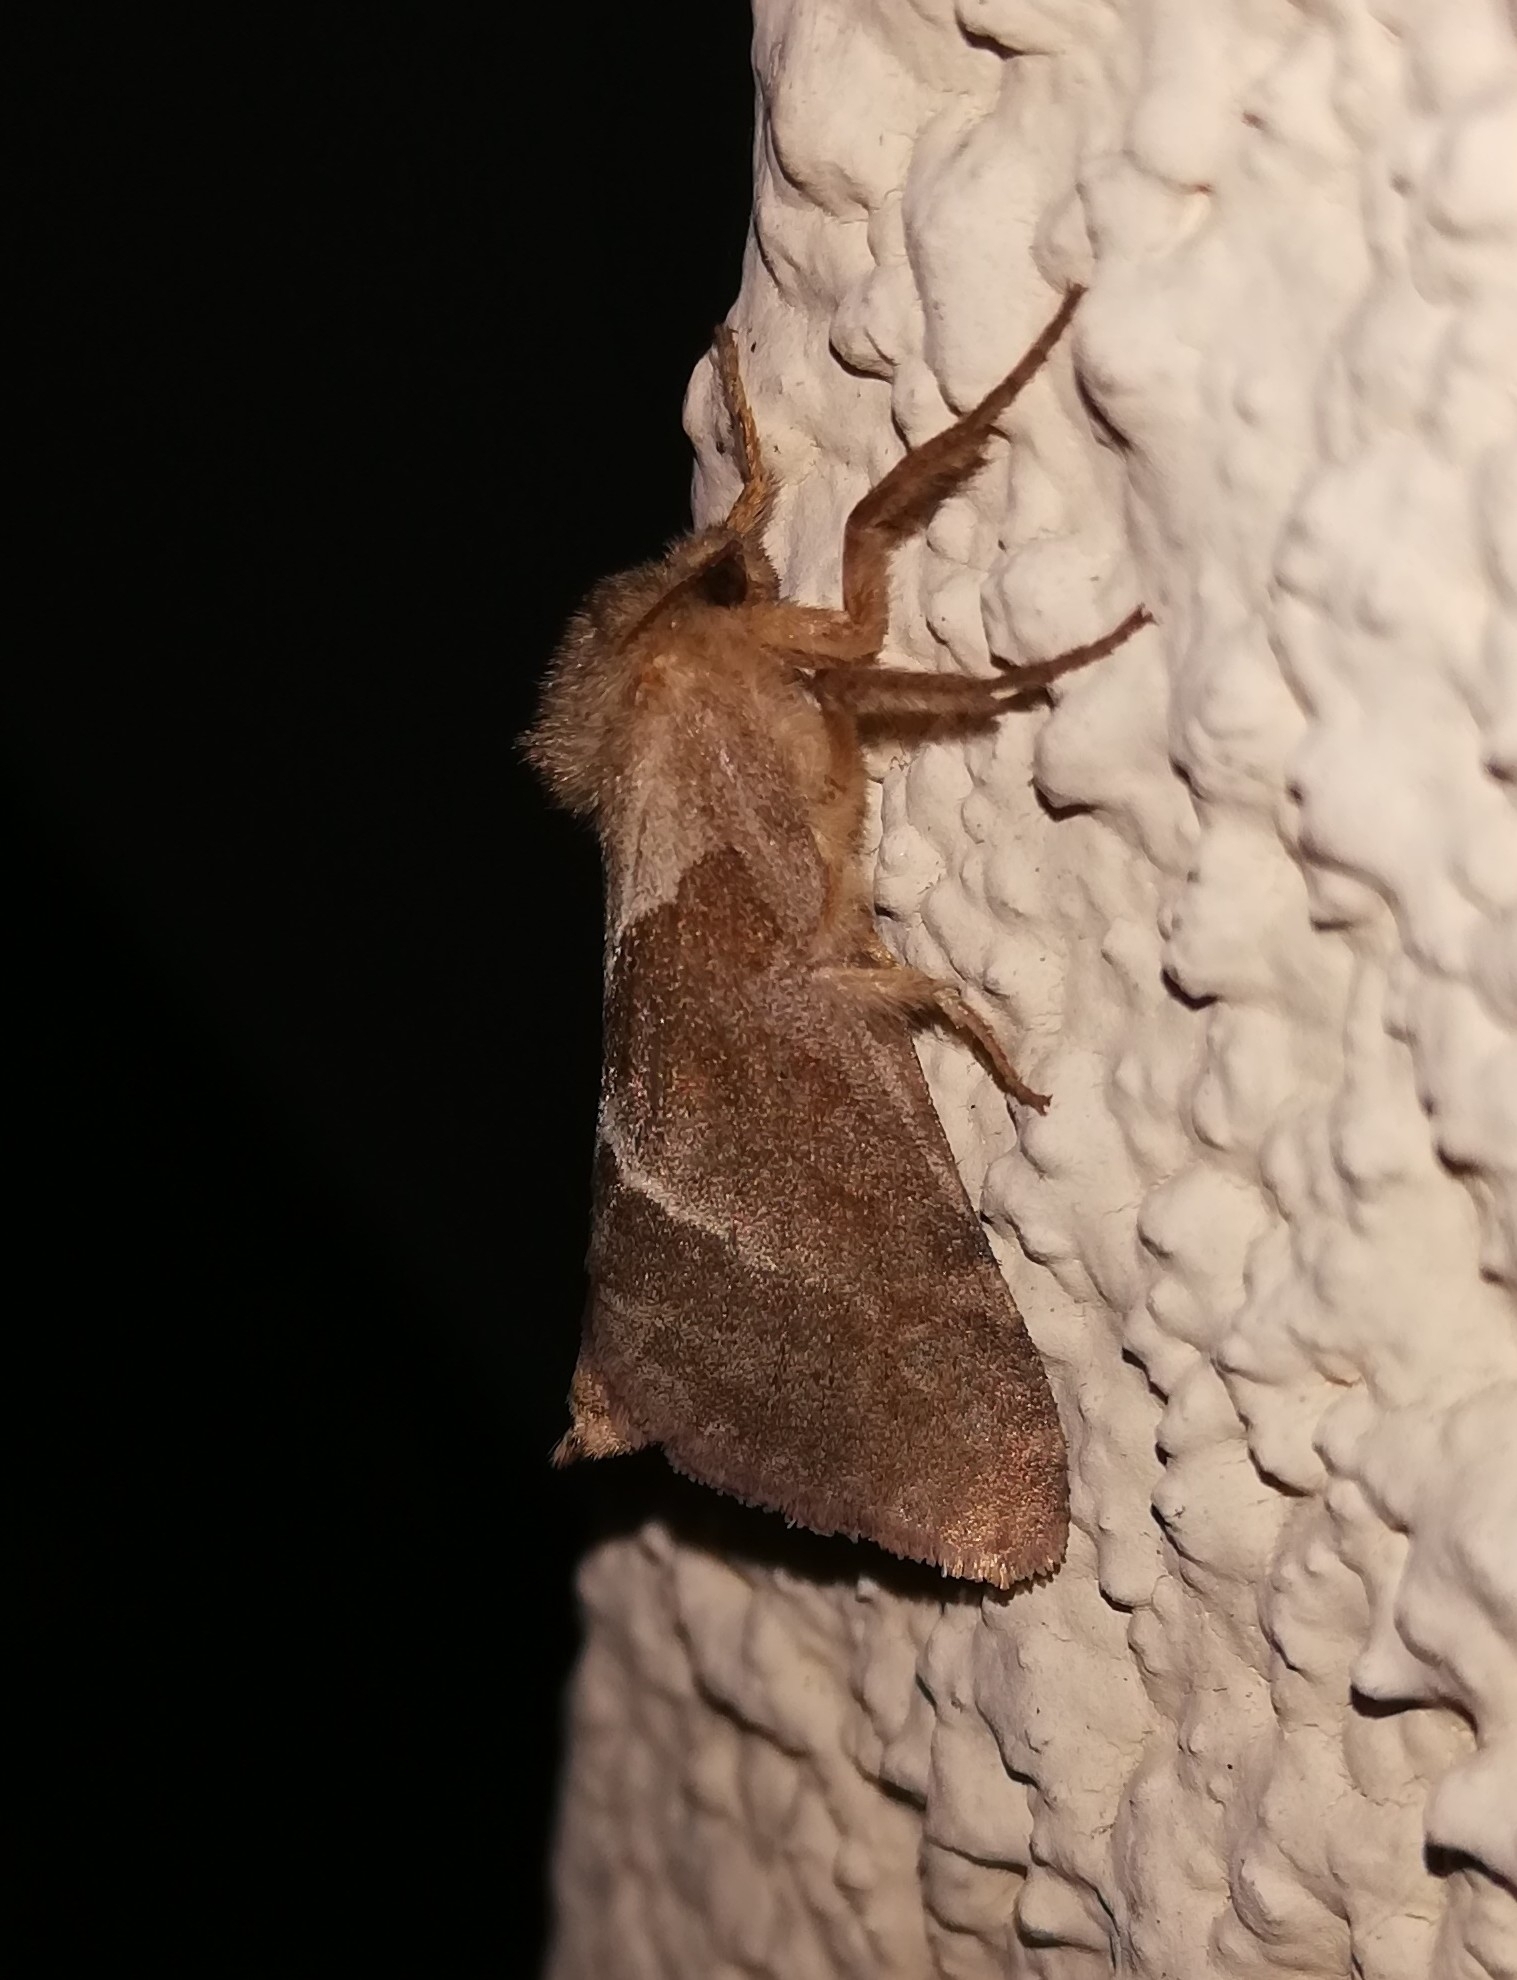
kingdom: Animalia
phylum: Arthropoda
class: Insecta
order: Lepidoptera
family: Hepialidae
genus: Triodia
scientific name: Triodia sylvina
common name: Orange swift
